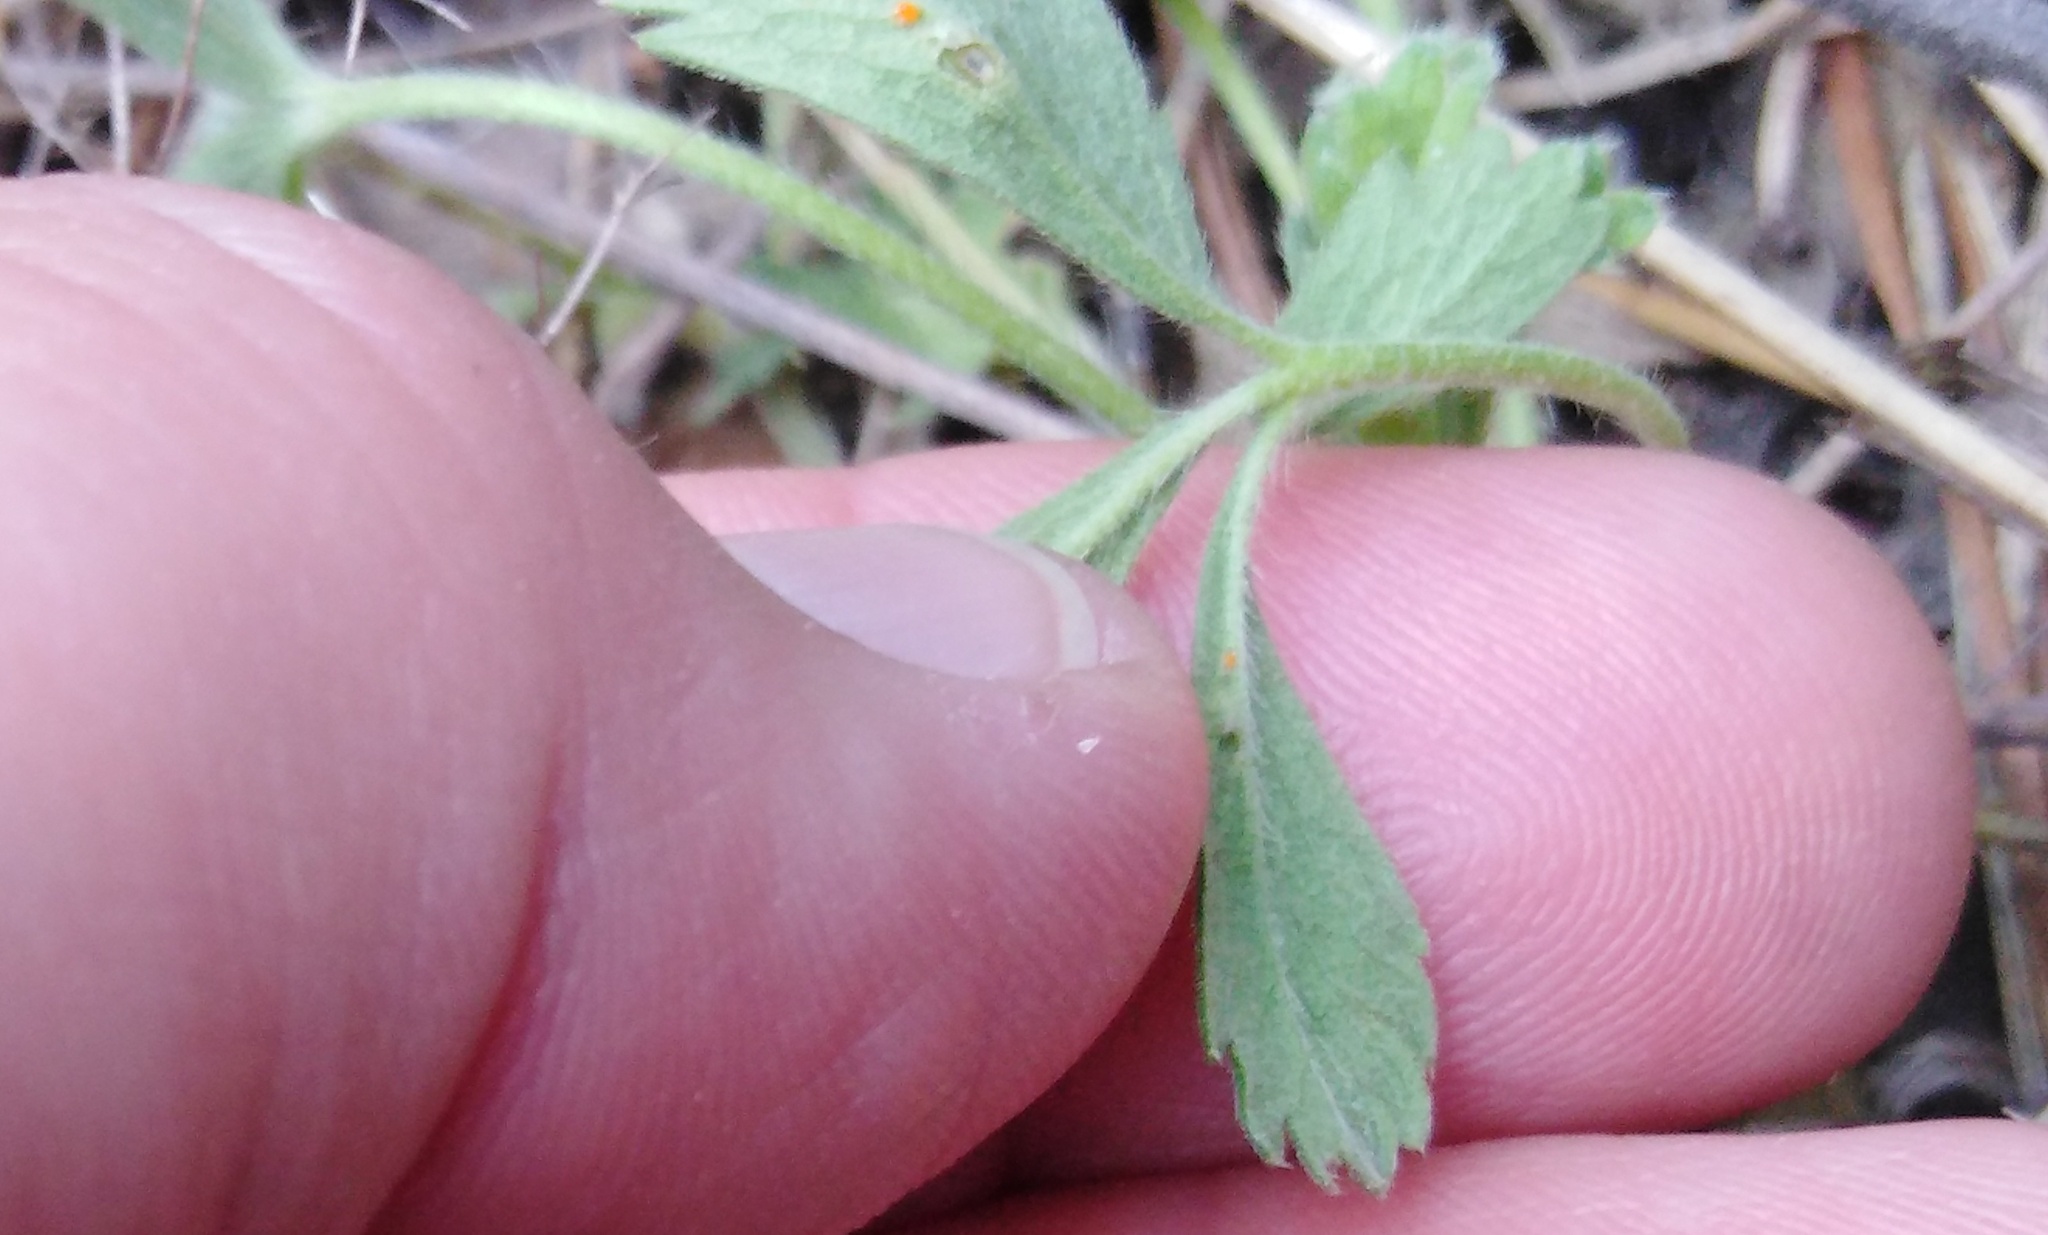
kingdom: Plantae
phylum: Tracheophyta
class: Magnoliopsida
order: Rosales
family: Rosaceae
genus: Potentilla
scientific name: Potentilla incana
